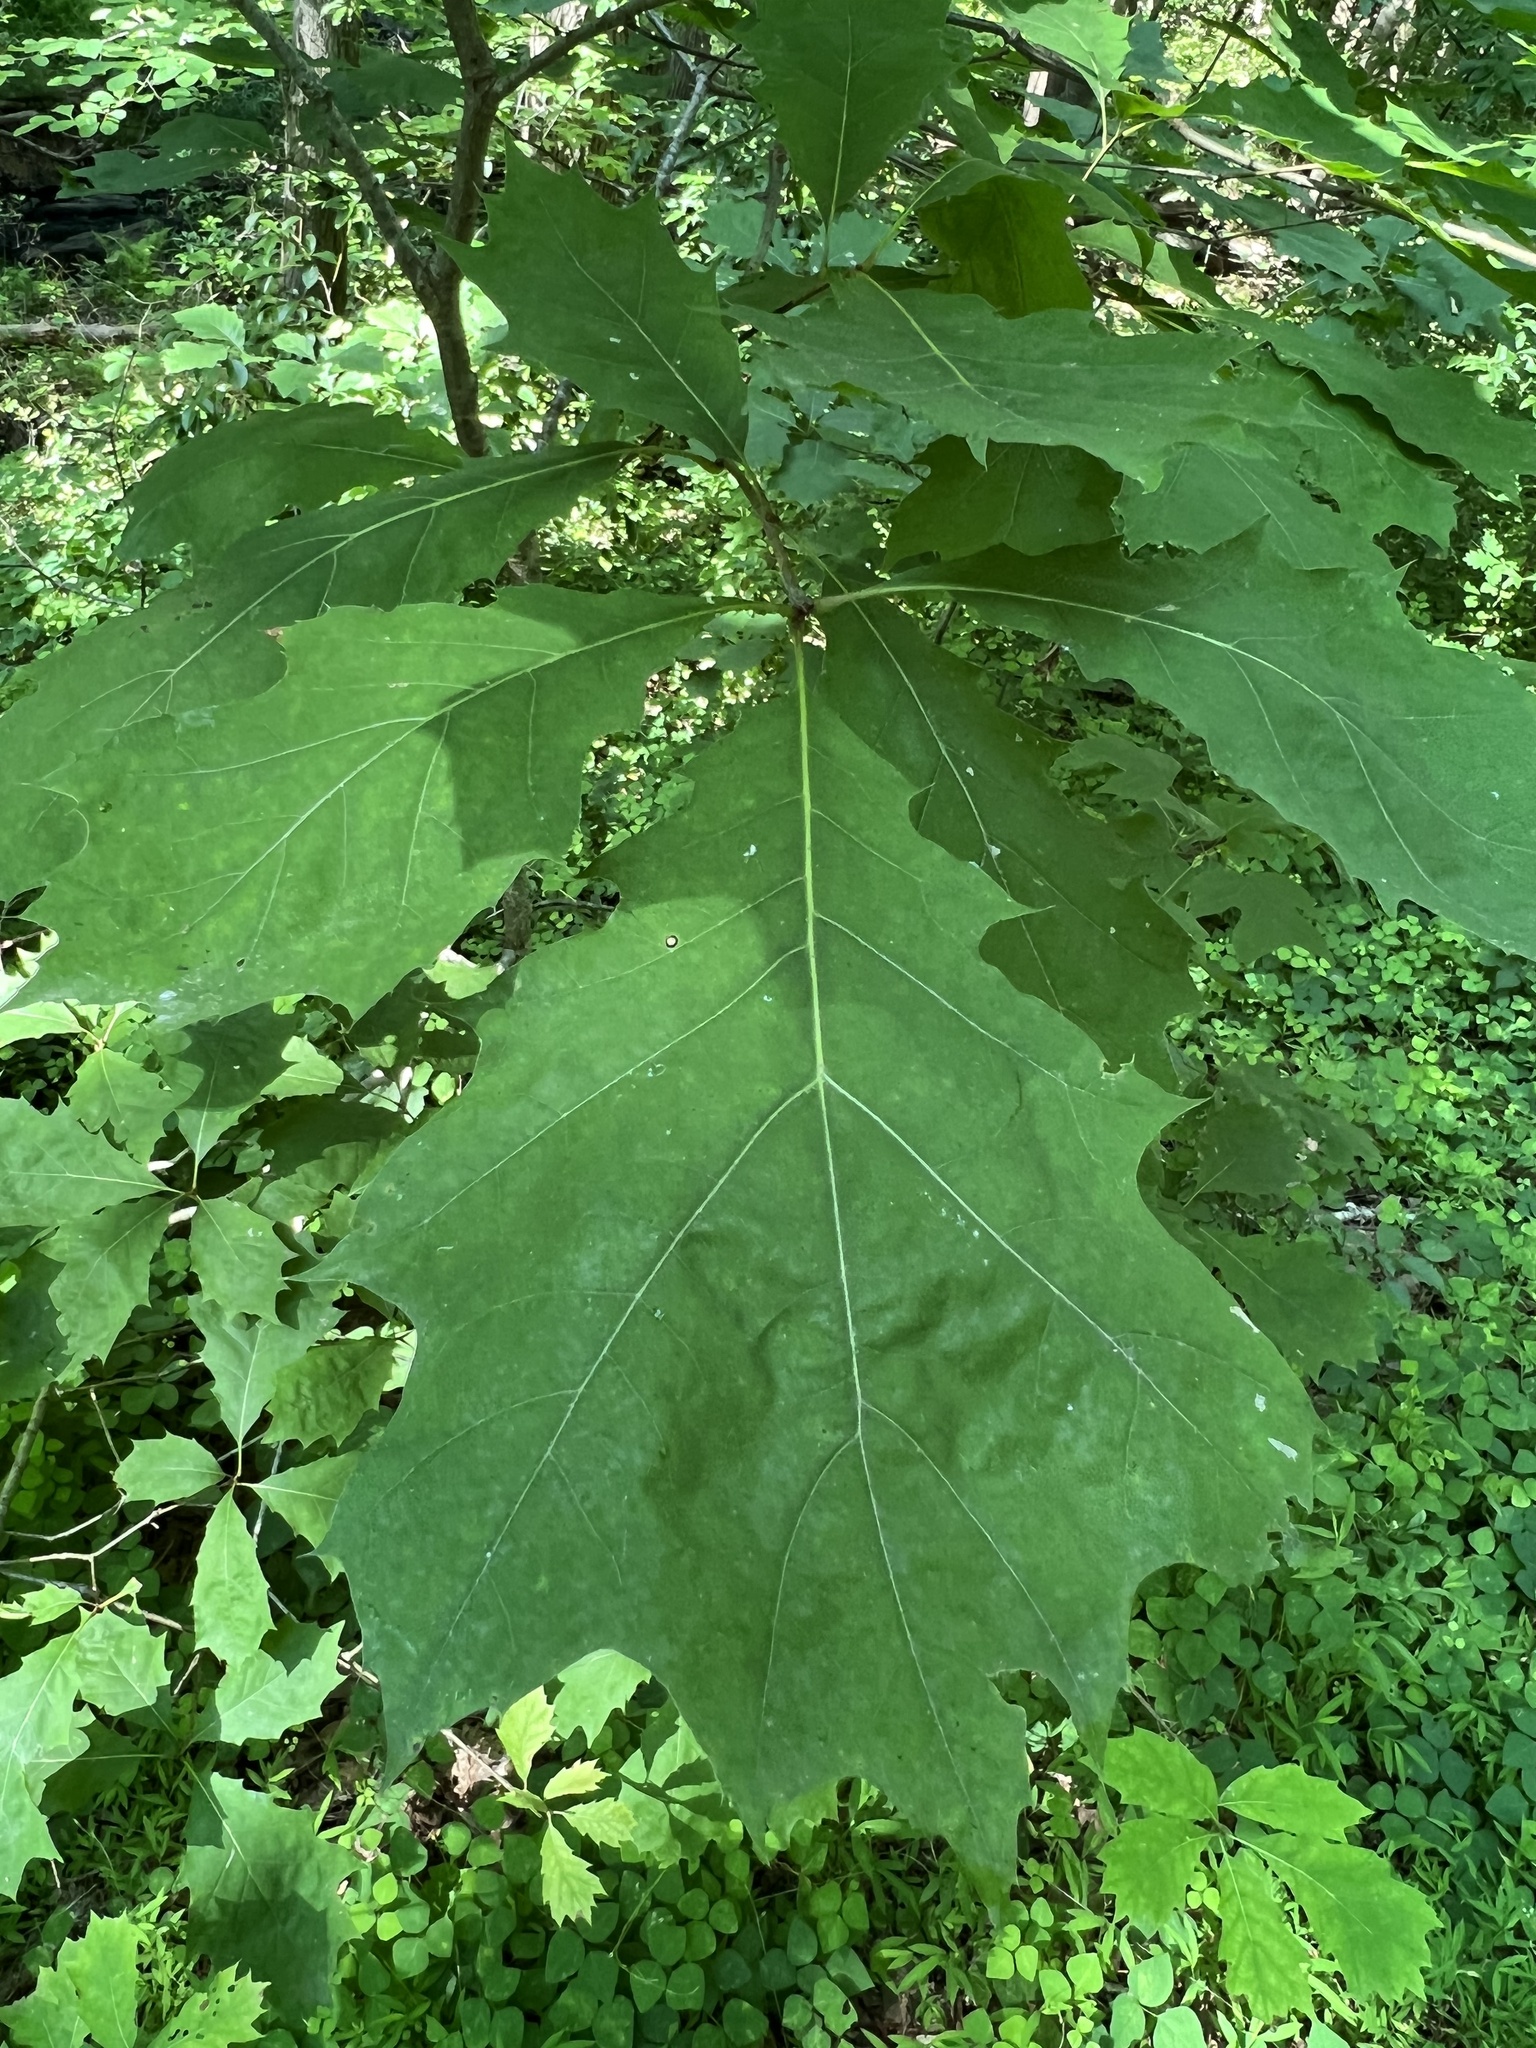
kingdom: Animalia
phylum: Arthropoda
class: Insecta
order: Hymenoptera
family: Cynipidae
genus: Kokkocynips
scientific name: Kokkocynips rileyi
